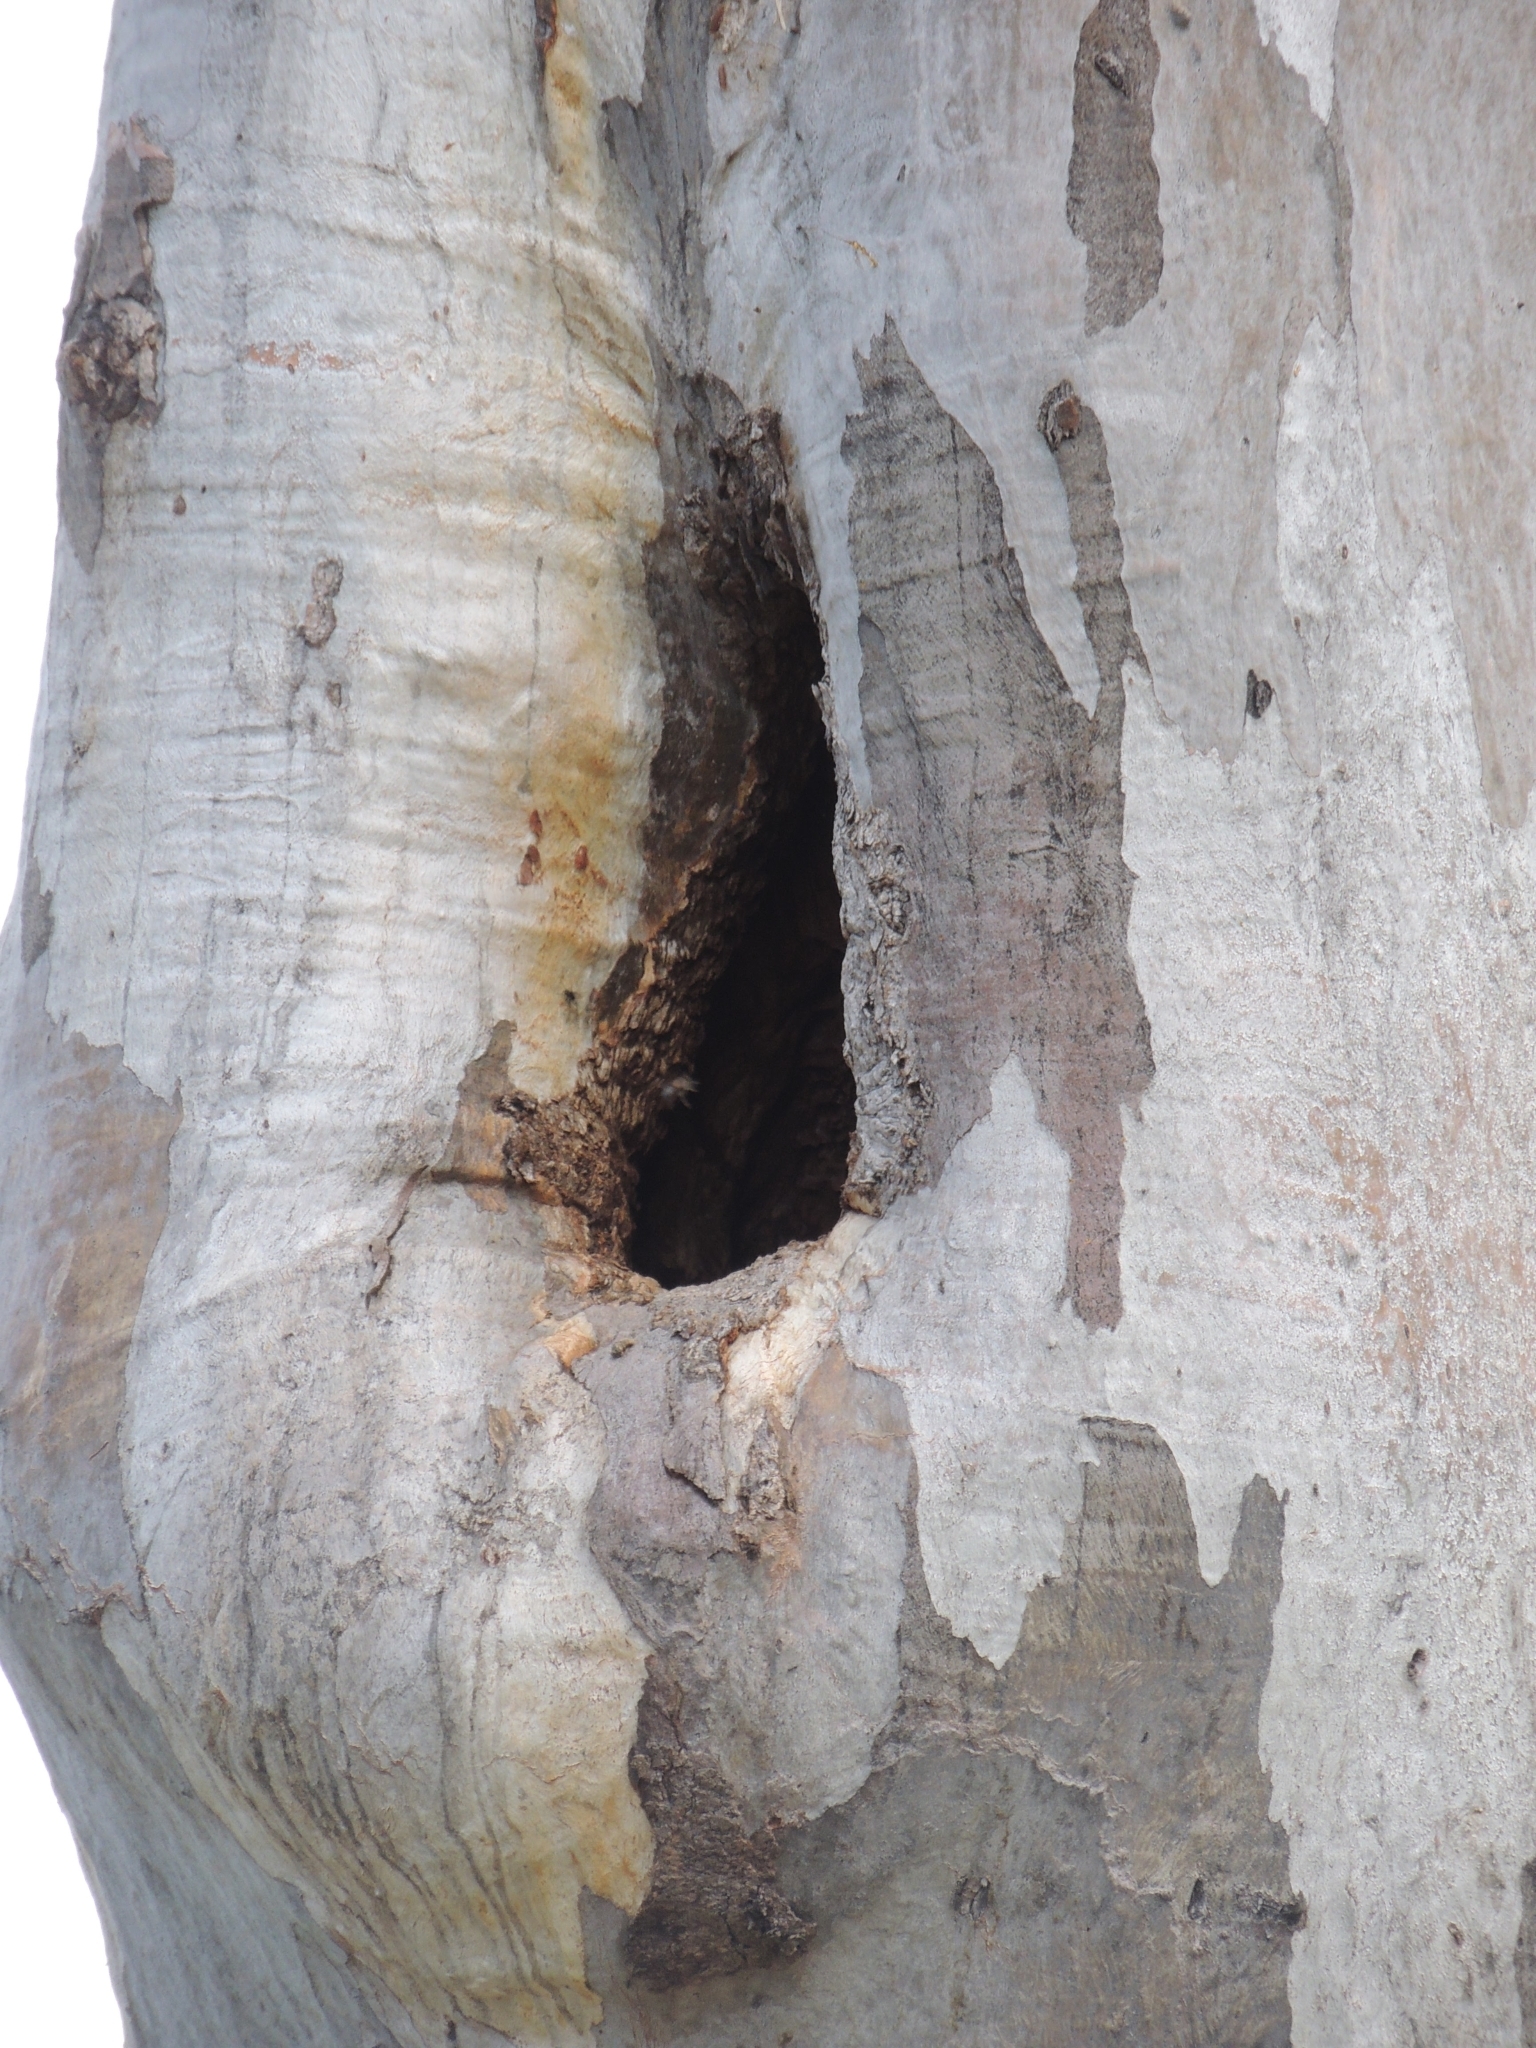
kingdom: Animalia
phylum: Arthropoda
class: Insecta
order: Hymenoptera
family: Apidae
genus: Apis
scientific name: Apis mellifera
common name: Honey bee
